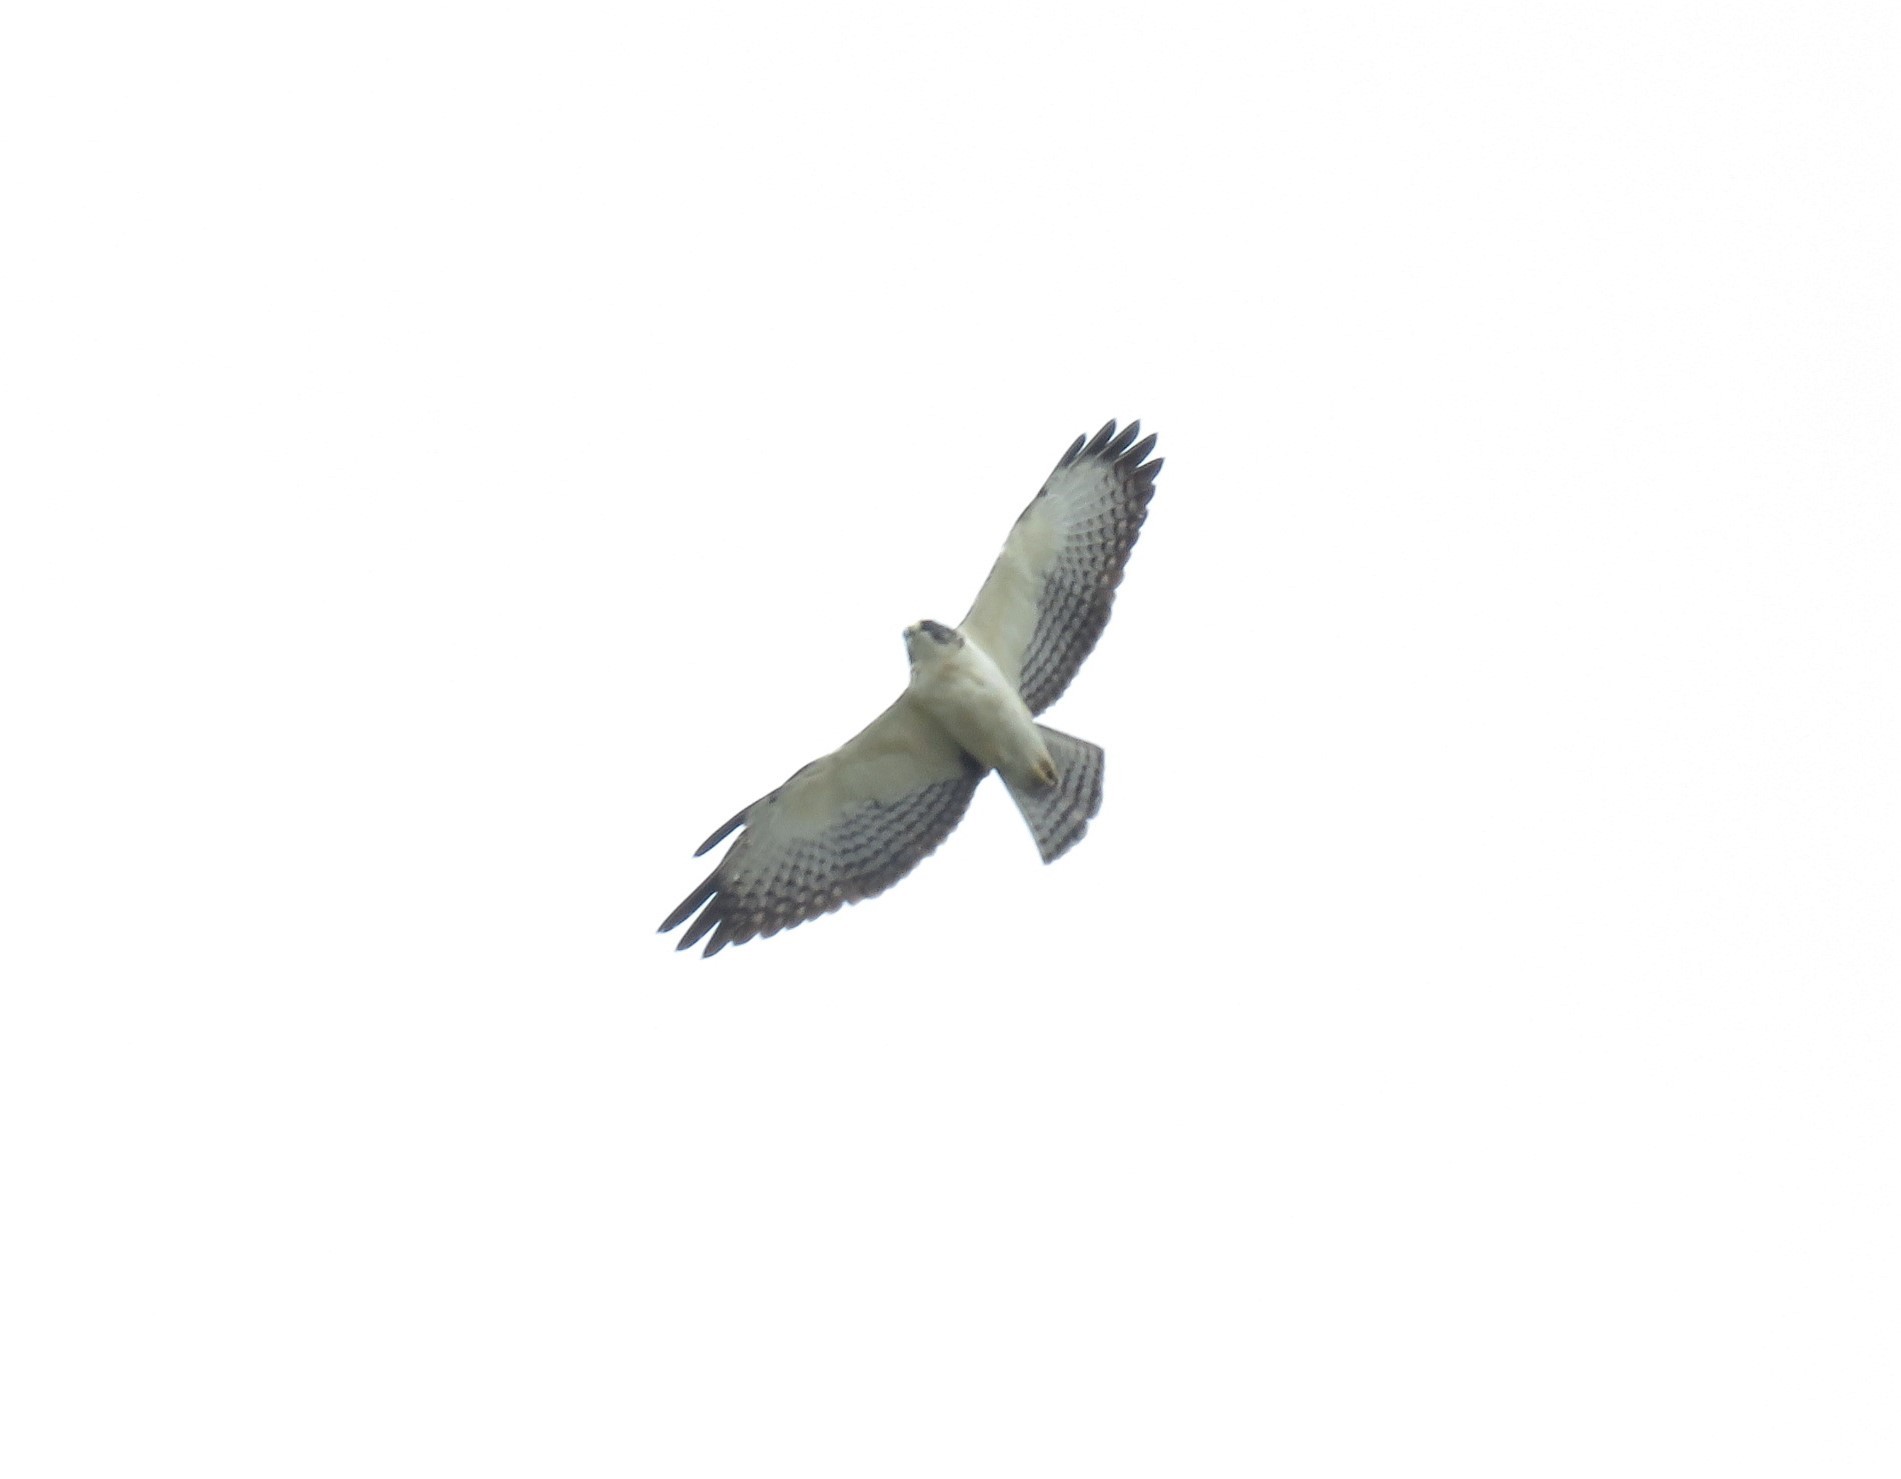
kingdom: Animalia
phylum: Chordata
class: Aves
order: Accipitriformes
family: Accipitridae
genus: Buteo
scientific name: Buteo brachyurus
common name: Short-tailed hawk
